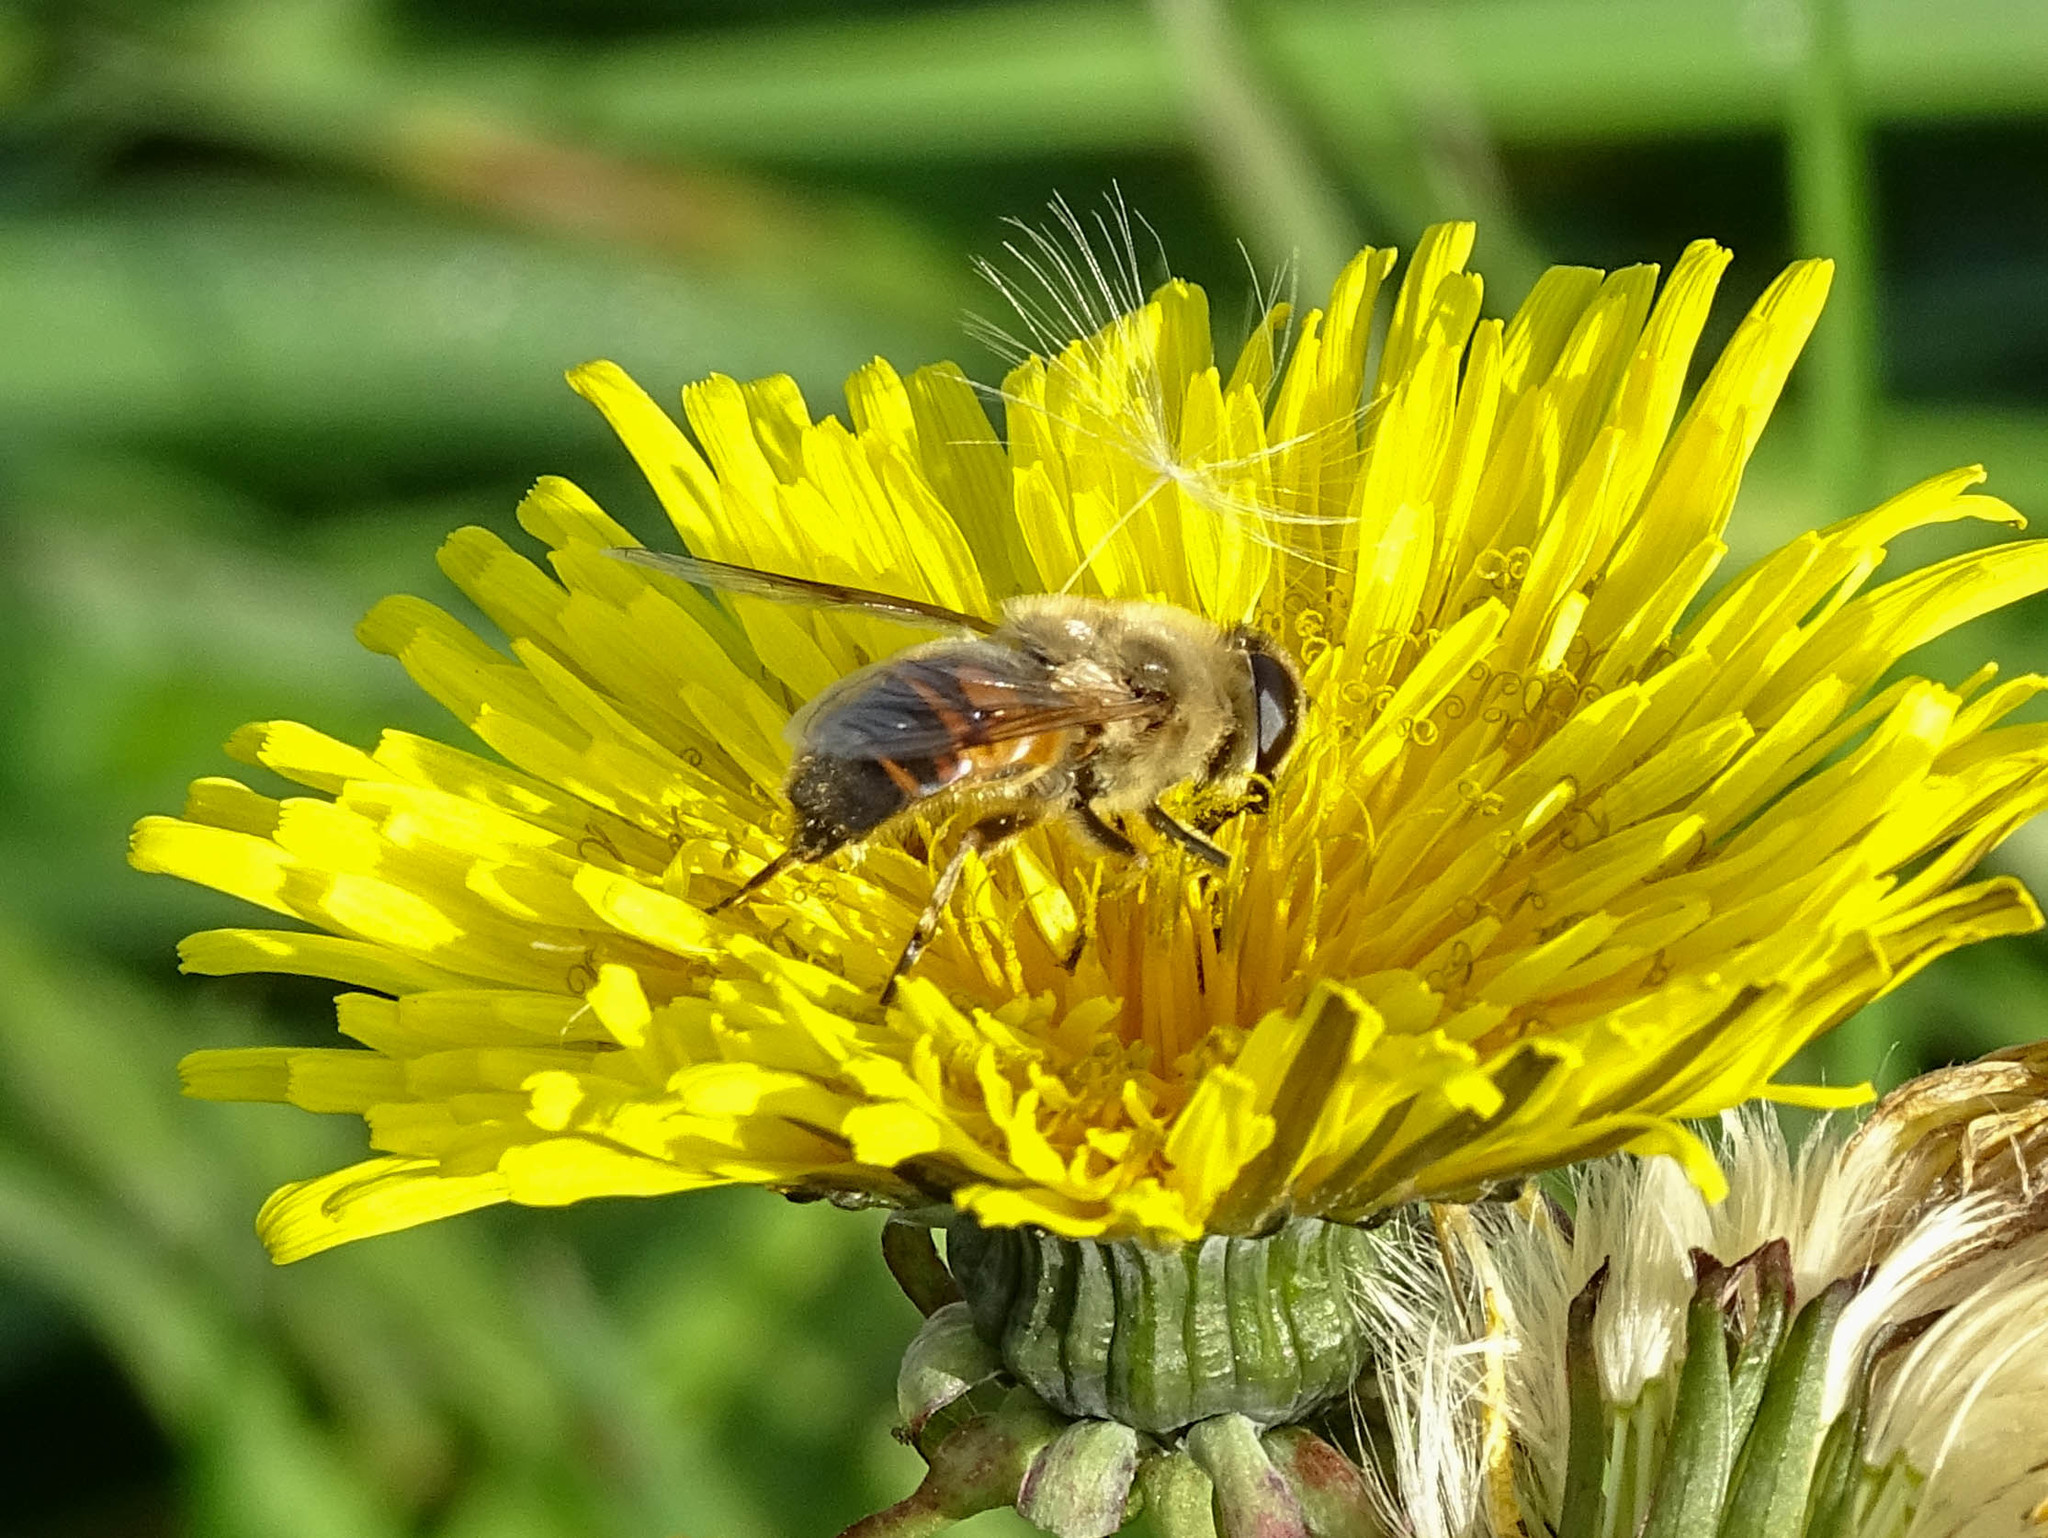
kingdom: Animalia
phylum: Arthropoda
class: Insecta
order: Diptera
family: Syrphidae
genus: Eristalis
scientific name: Eristalis tenax
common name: Drone fly
